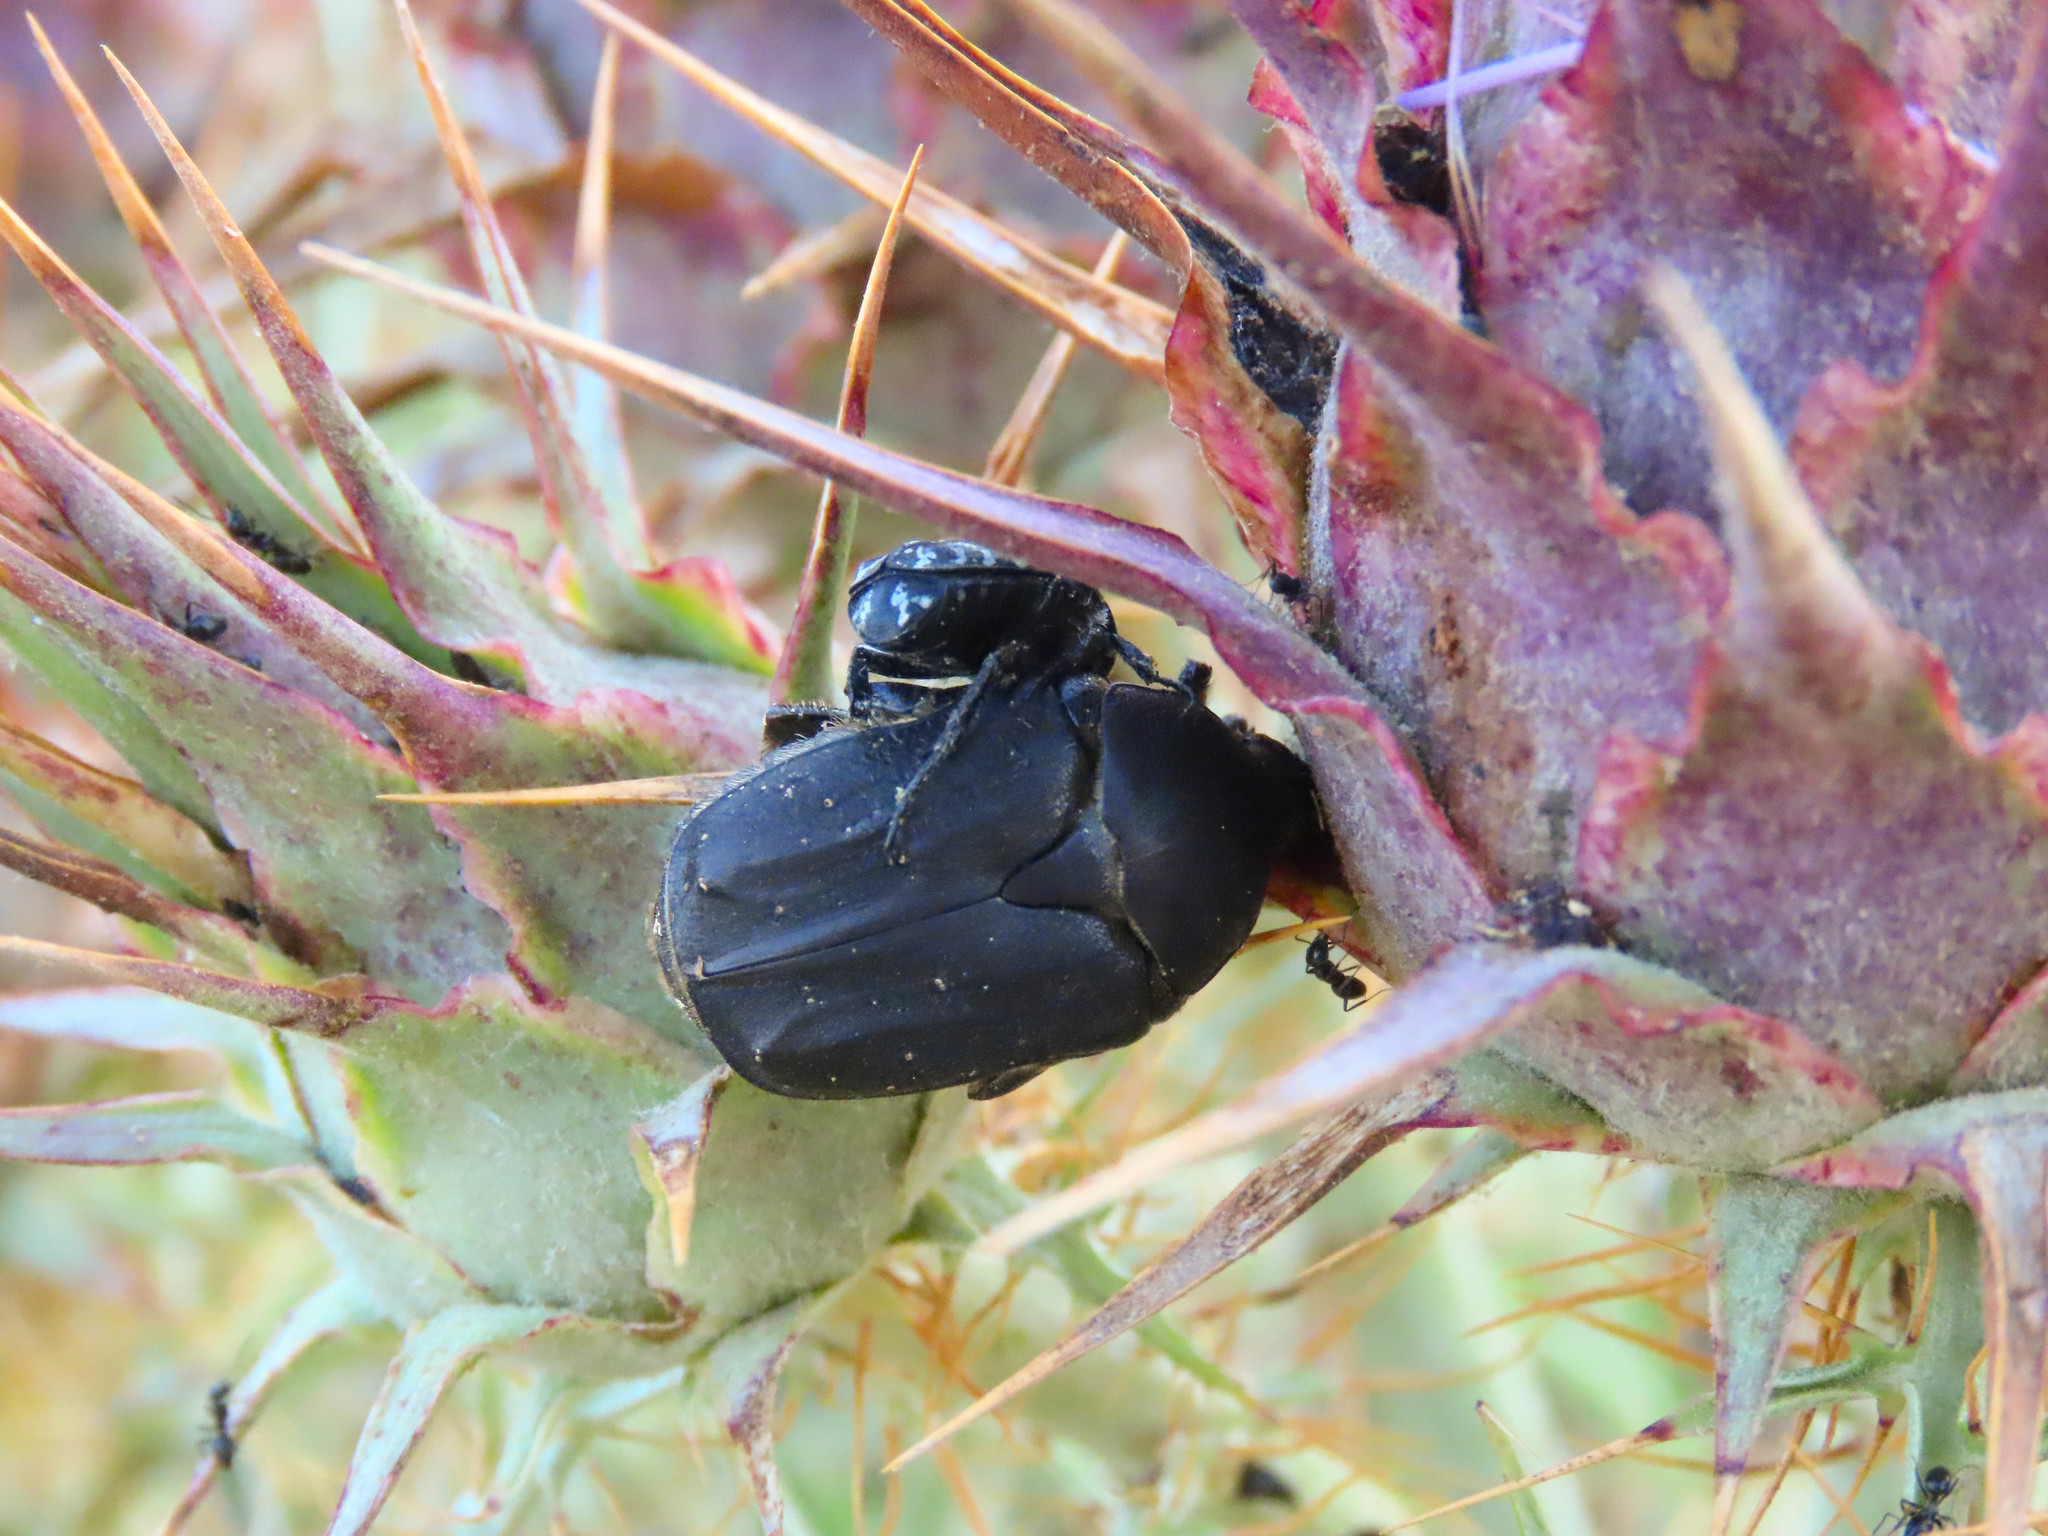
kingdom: Animalia
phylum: Arthropoda
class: Insecta
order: Coleoptera
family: Scarabaeidae
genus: Protaetia
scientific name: Protaetia morio
